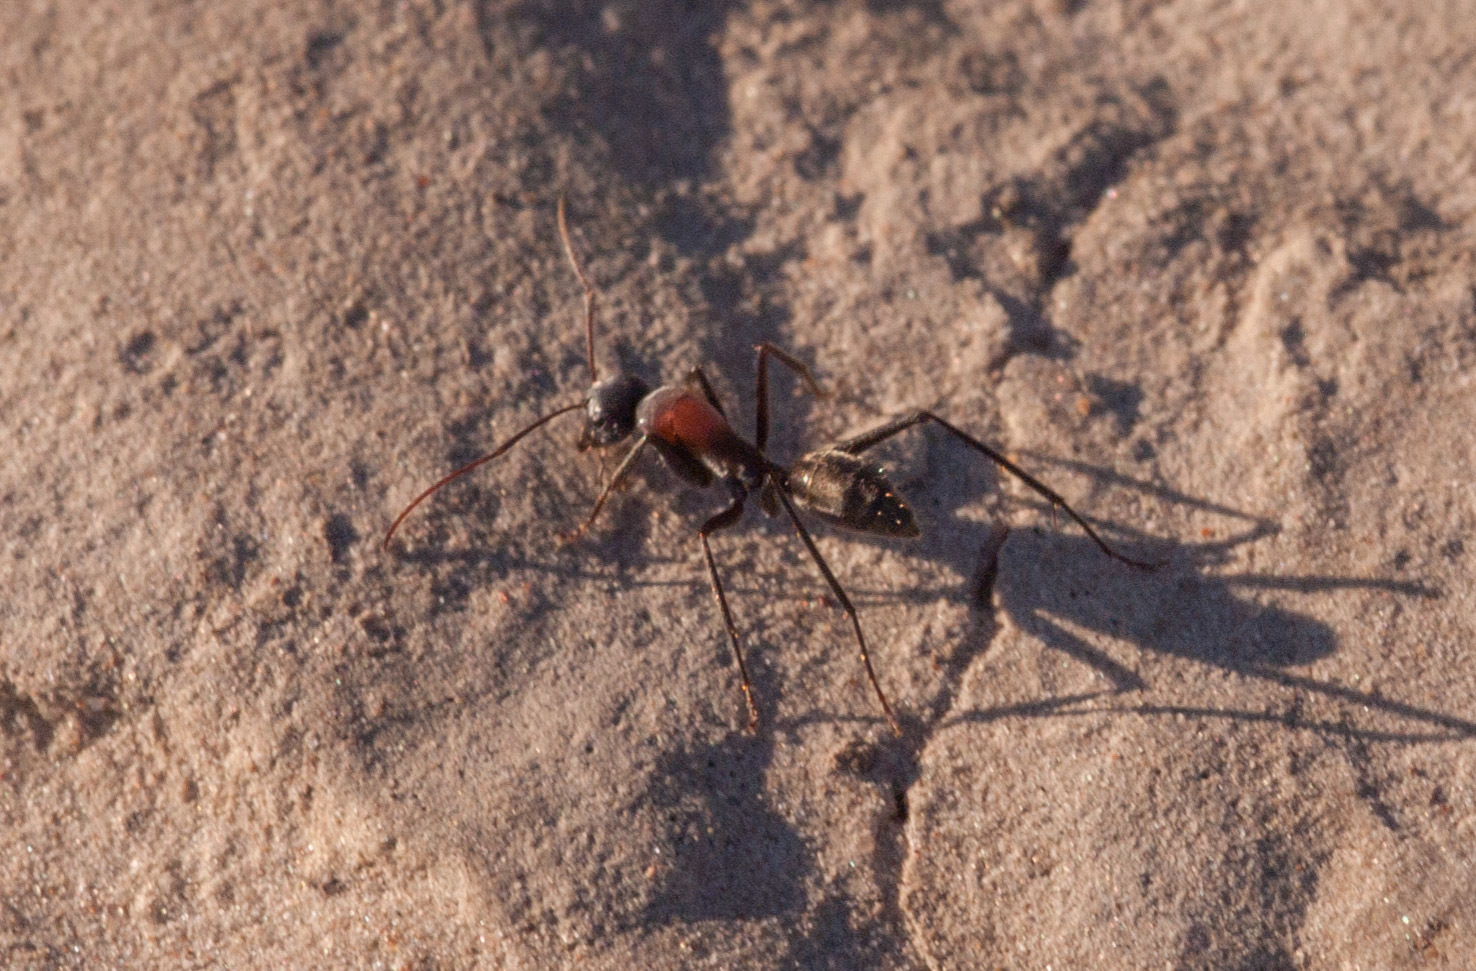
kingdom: Animalia
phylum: Arthropoda
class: Insecta
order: Hymenoptera
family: Formicidae
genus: Camponotus
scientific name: Camponotus ephippium
